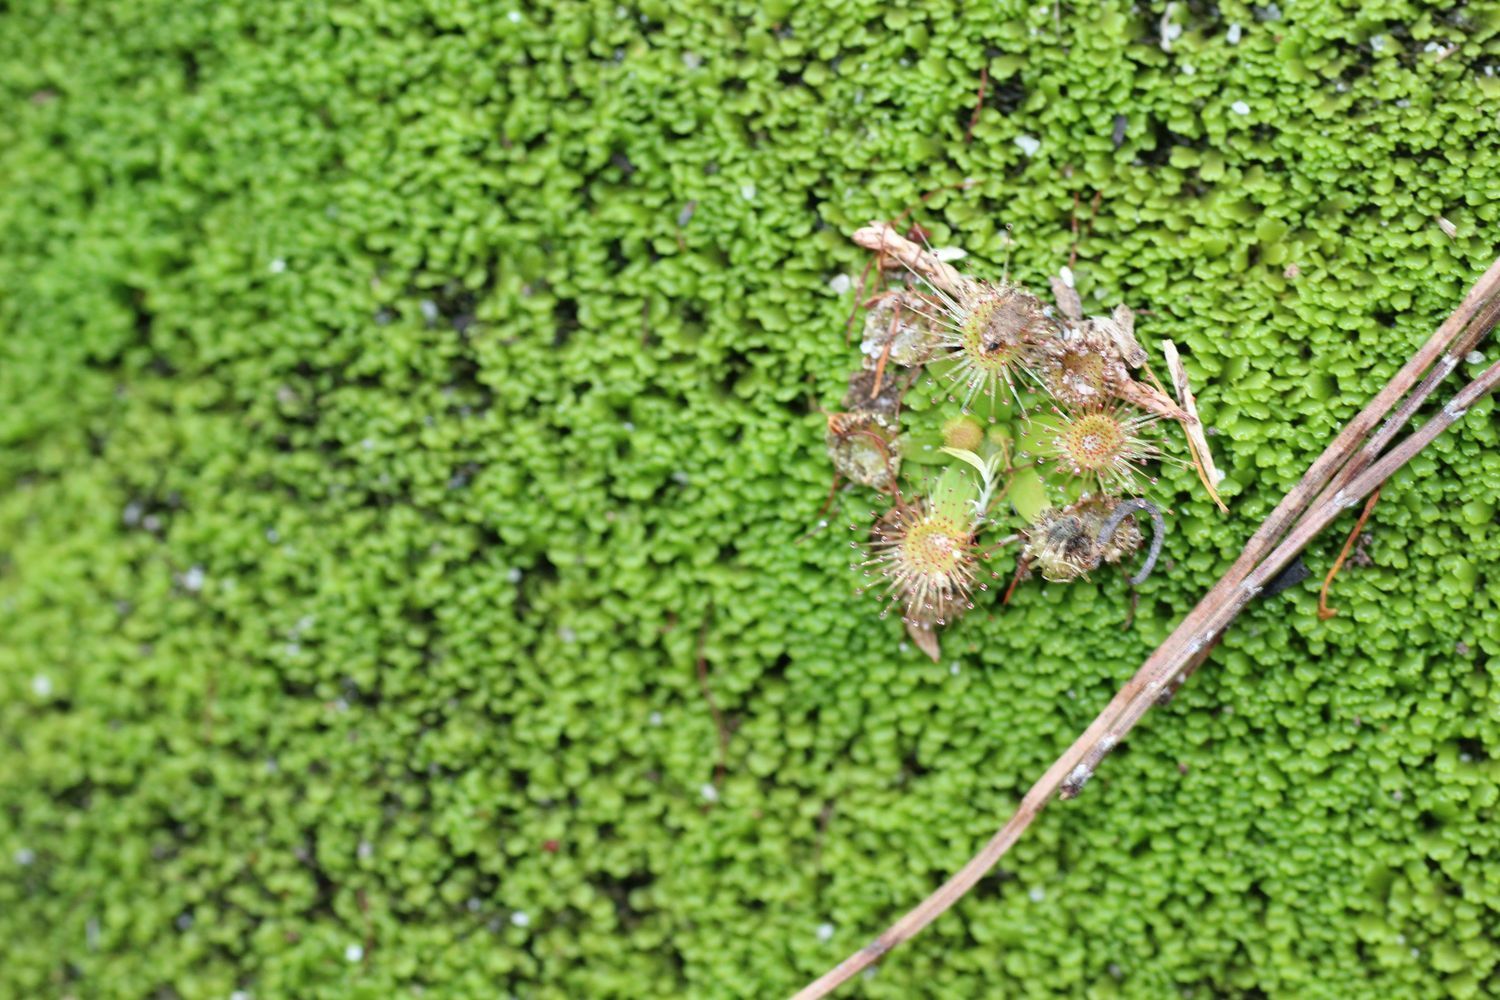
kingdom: Plantae
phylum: Tracheophyta
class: Magnoliopsida
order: Caryophyllales
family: Droseraceae
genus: Drosera
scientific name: Drosera pulchella
